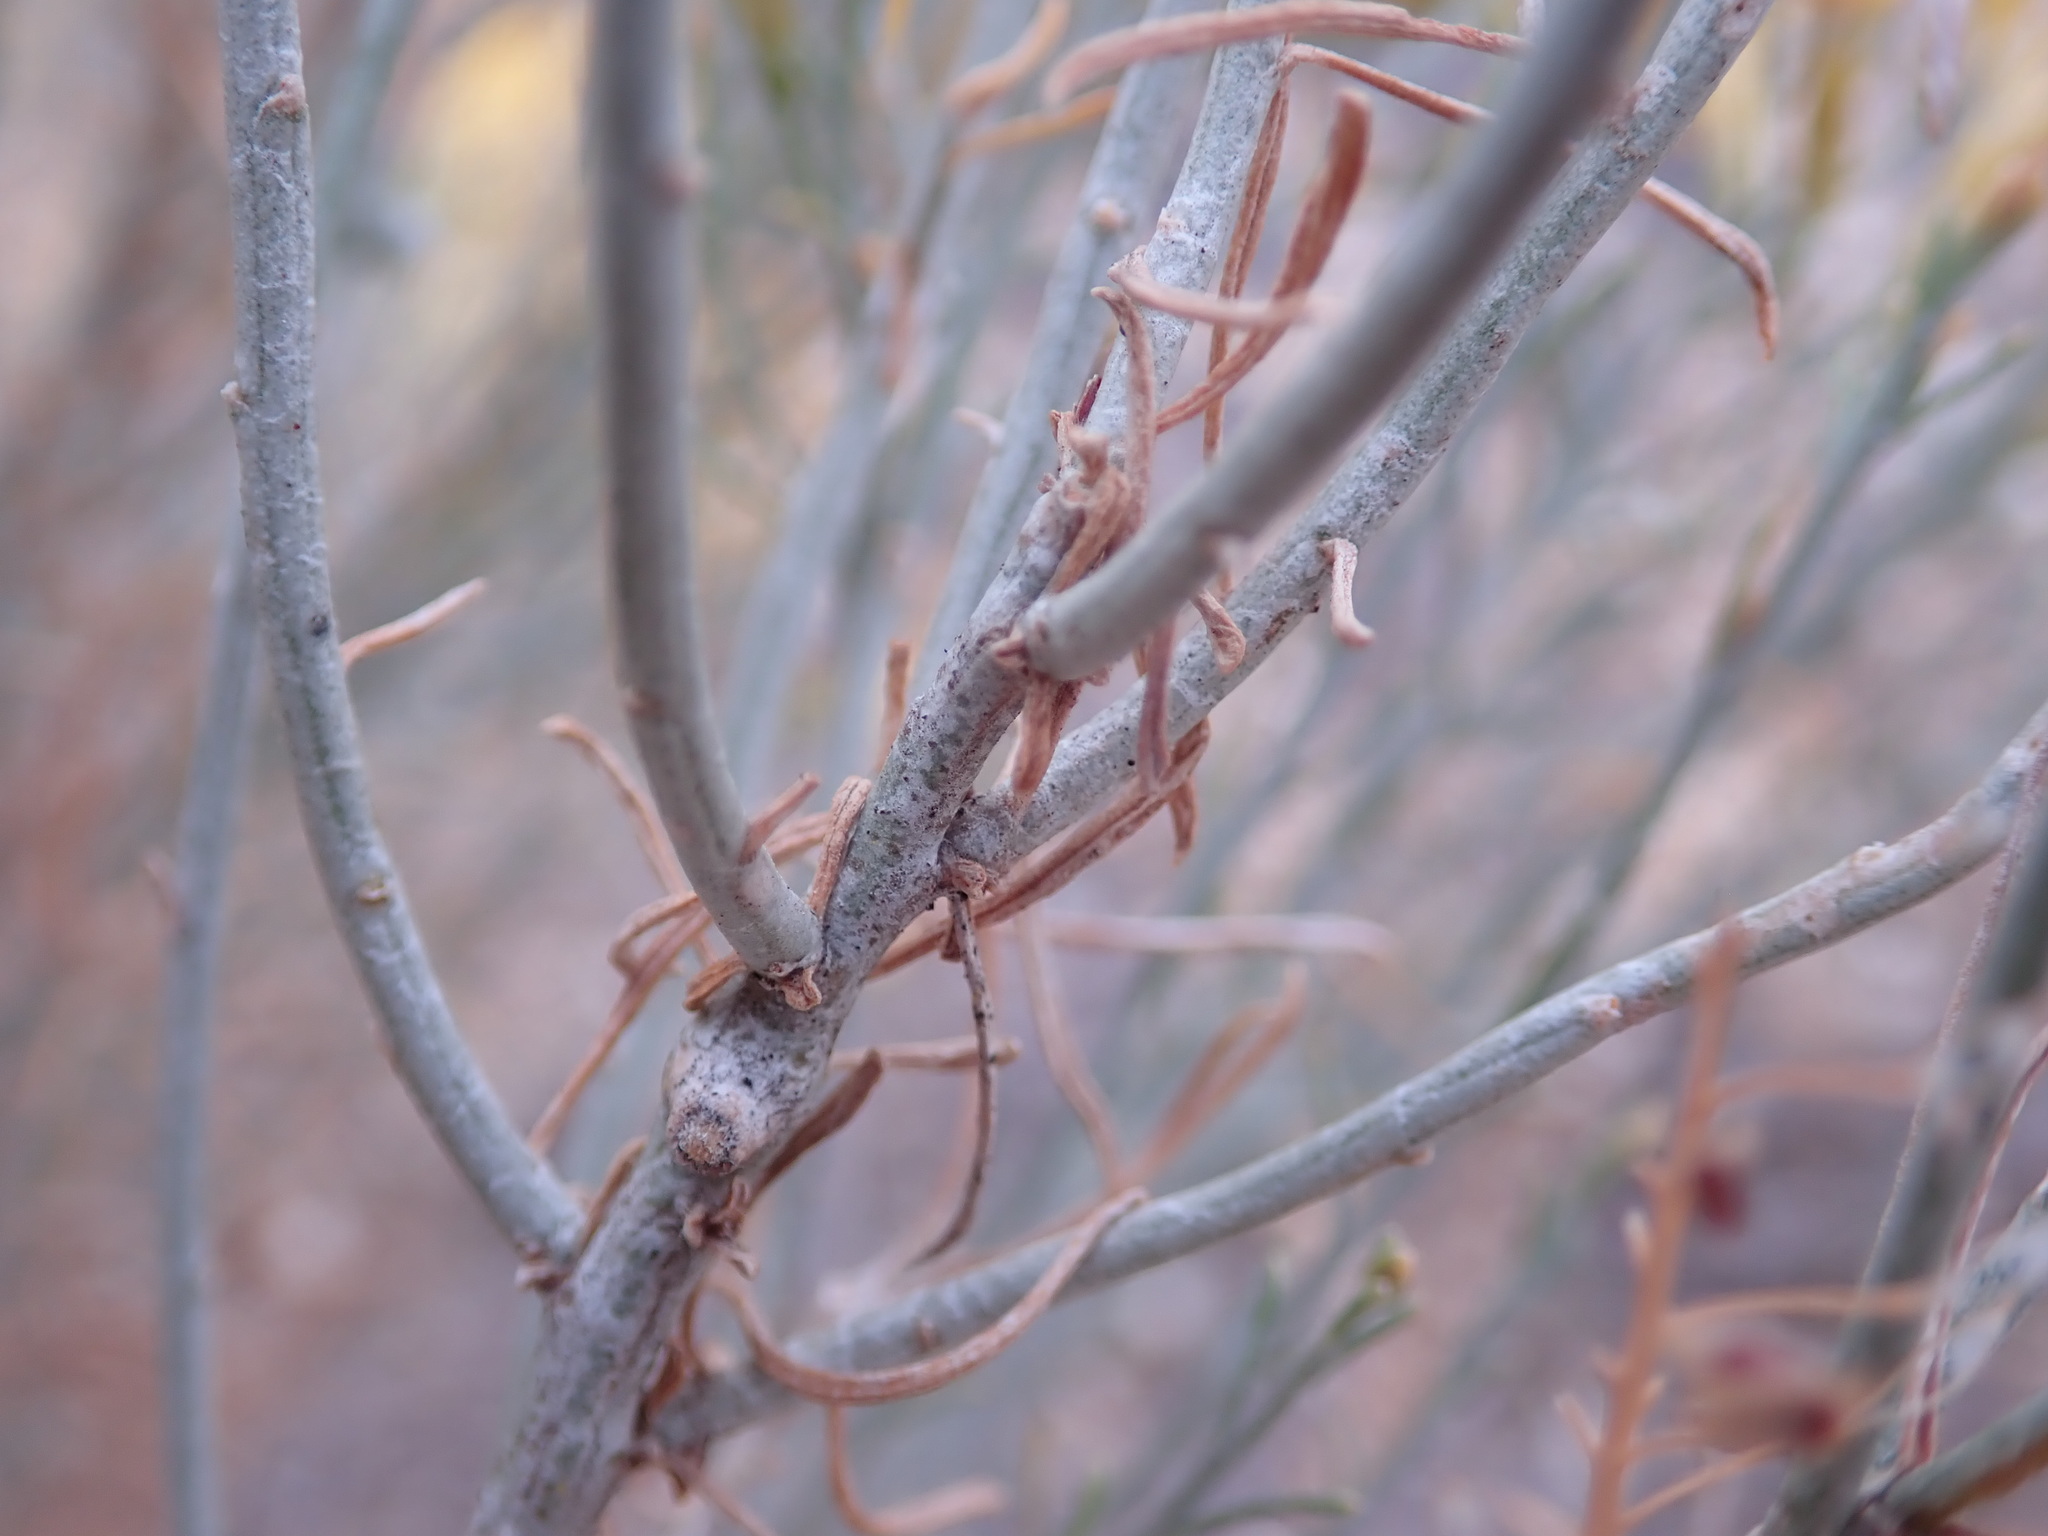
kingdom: Plantae
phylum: Tracheophyta
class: Magnoliopsida
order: Asterales
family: Asteraceae
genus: Ericameria
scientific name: Ericameria nauseosa
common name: Rubber rabbitbrush
